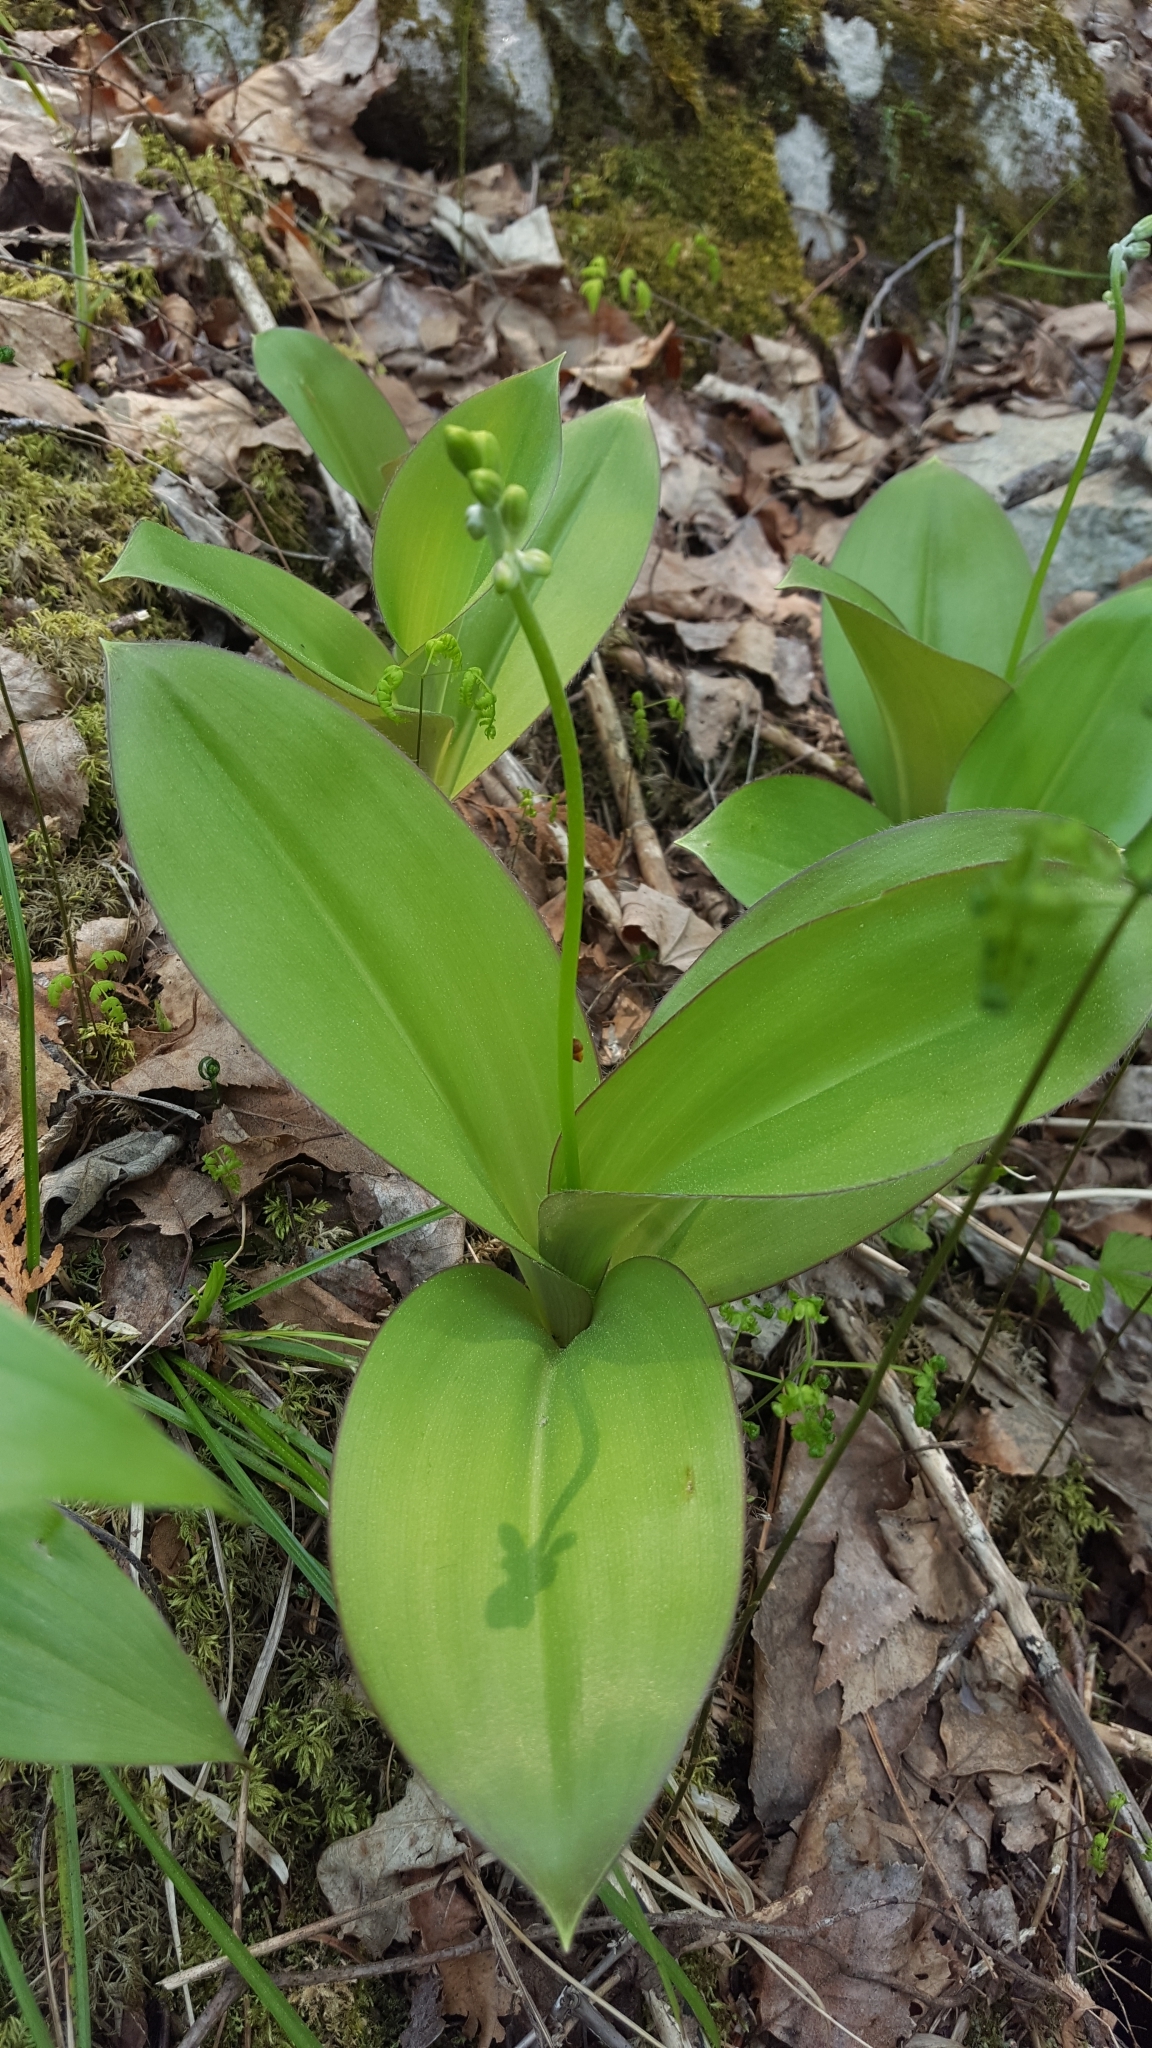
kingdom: Plantae
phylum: Tracheophyta
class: Liliopsida
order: Liliales
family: Liliaceae
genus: Clintonia
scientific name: Clintonia borealis
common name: Yellow clintonia
